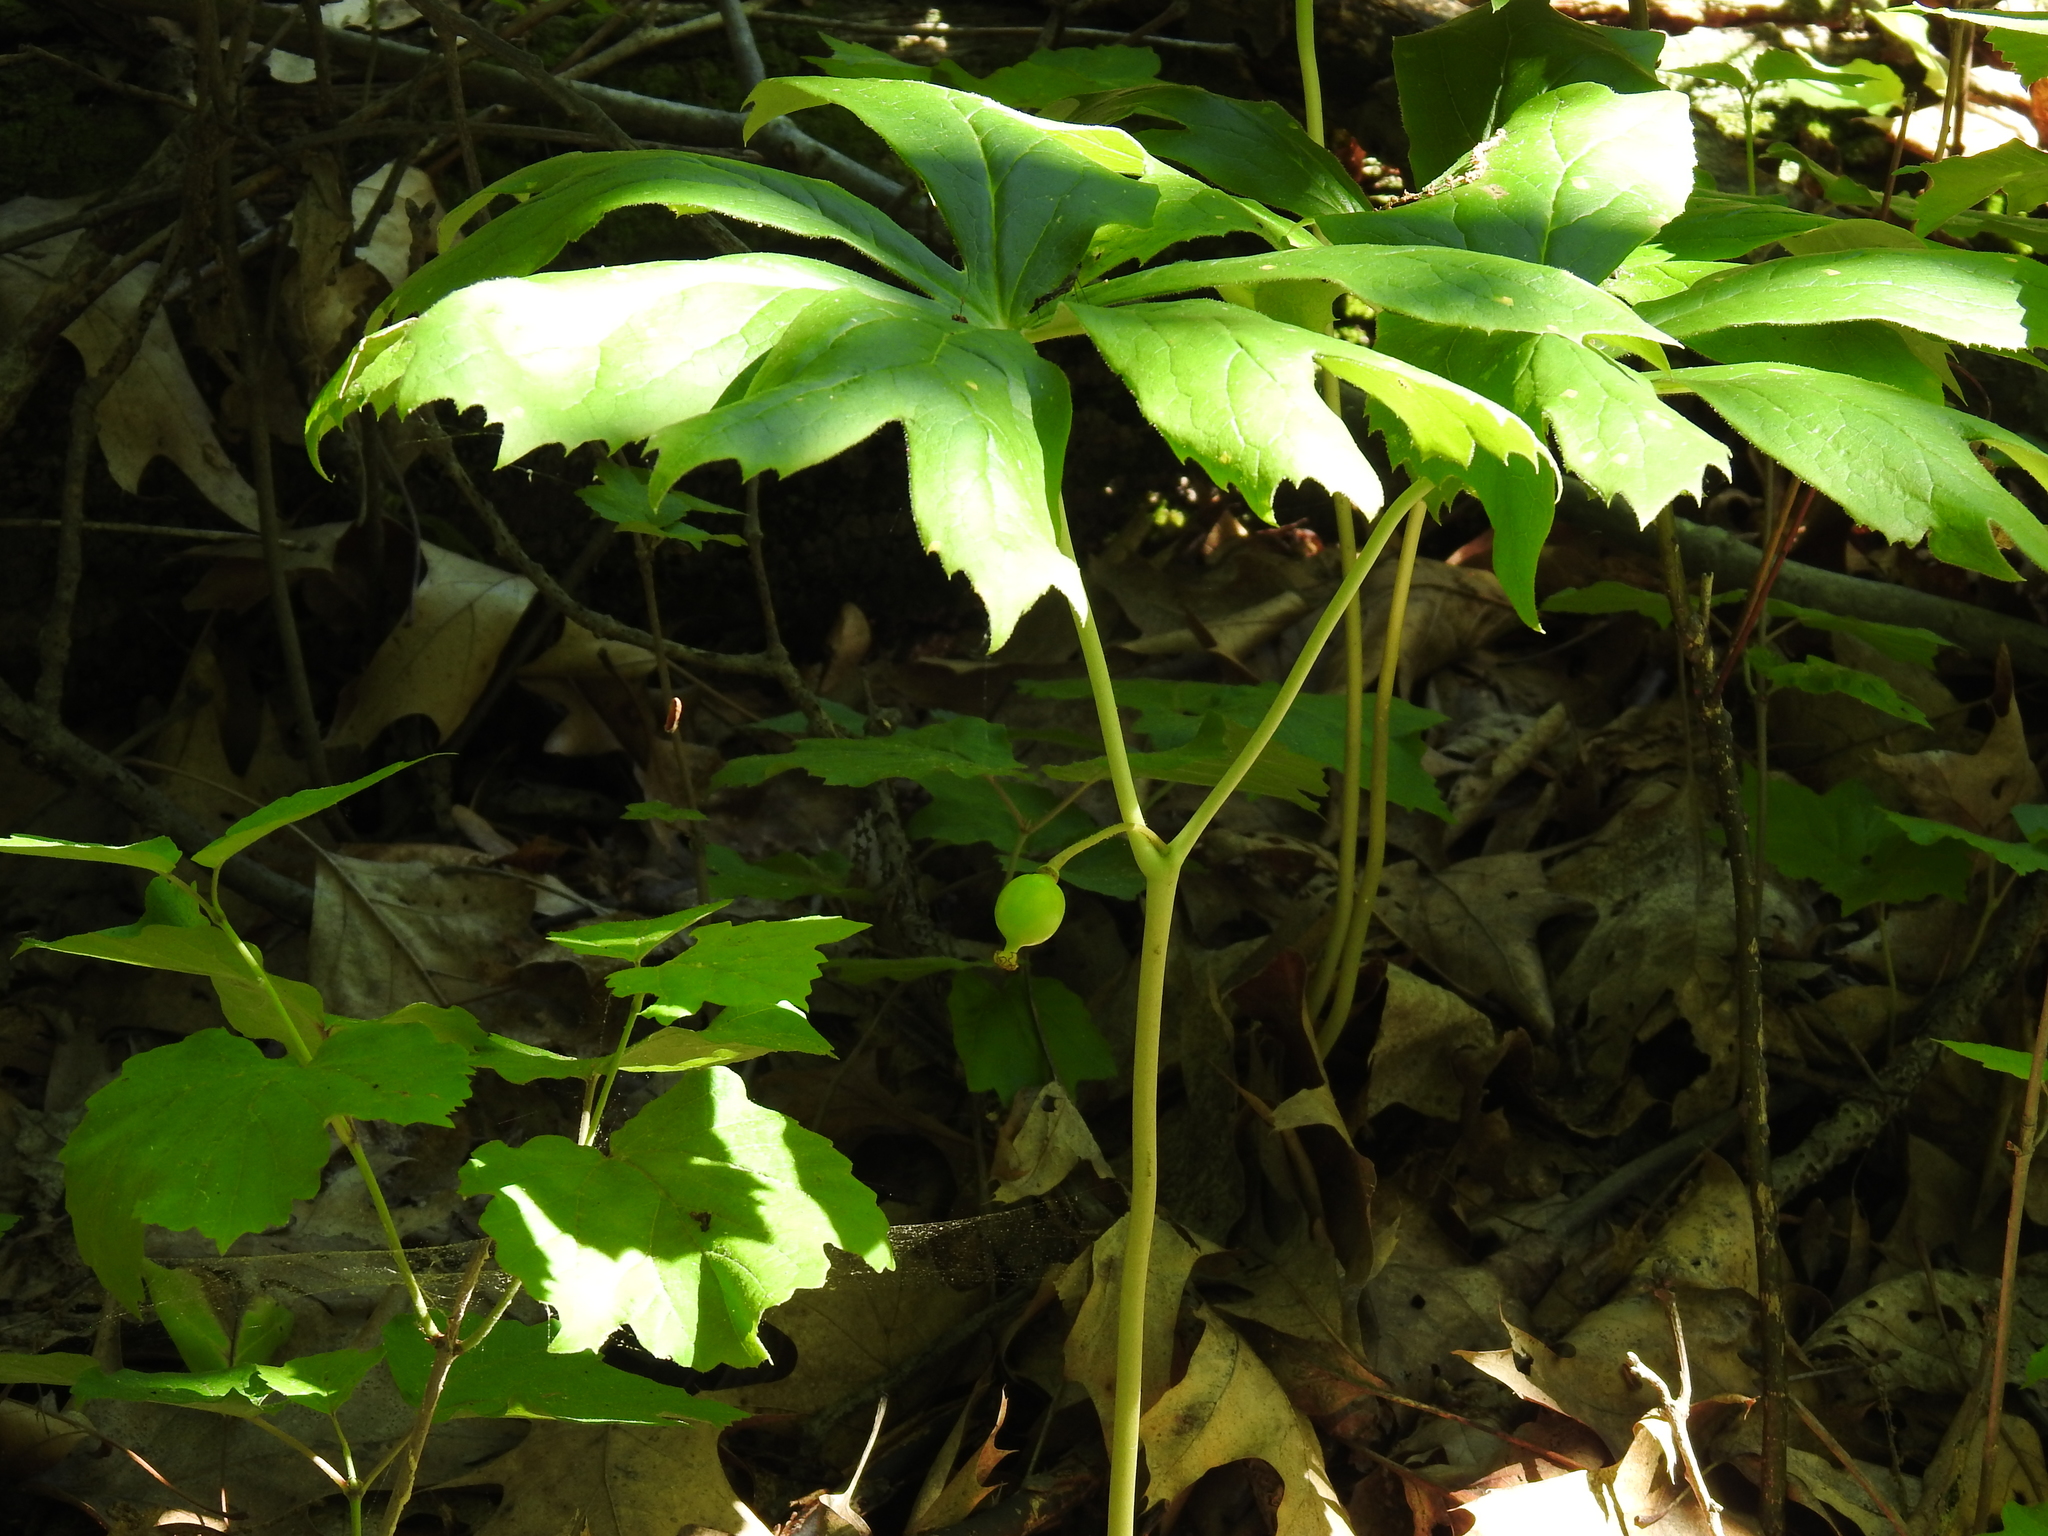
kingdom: Plantae
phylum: Tracheophyta
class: Magnoliopsida
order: Ranunculales
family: Berberidaceae
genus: Podophyllum
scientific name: Podophyllum peltatum
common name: Wild mandrake
